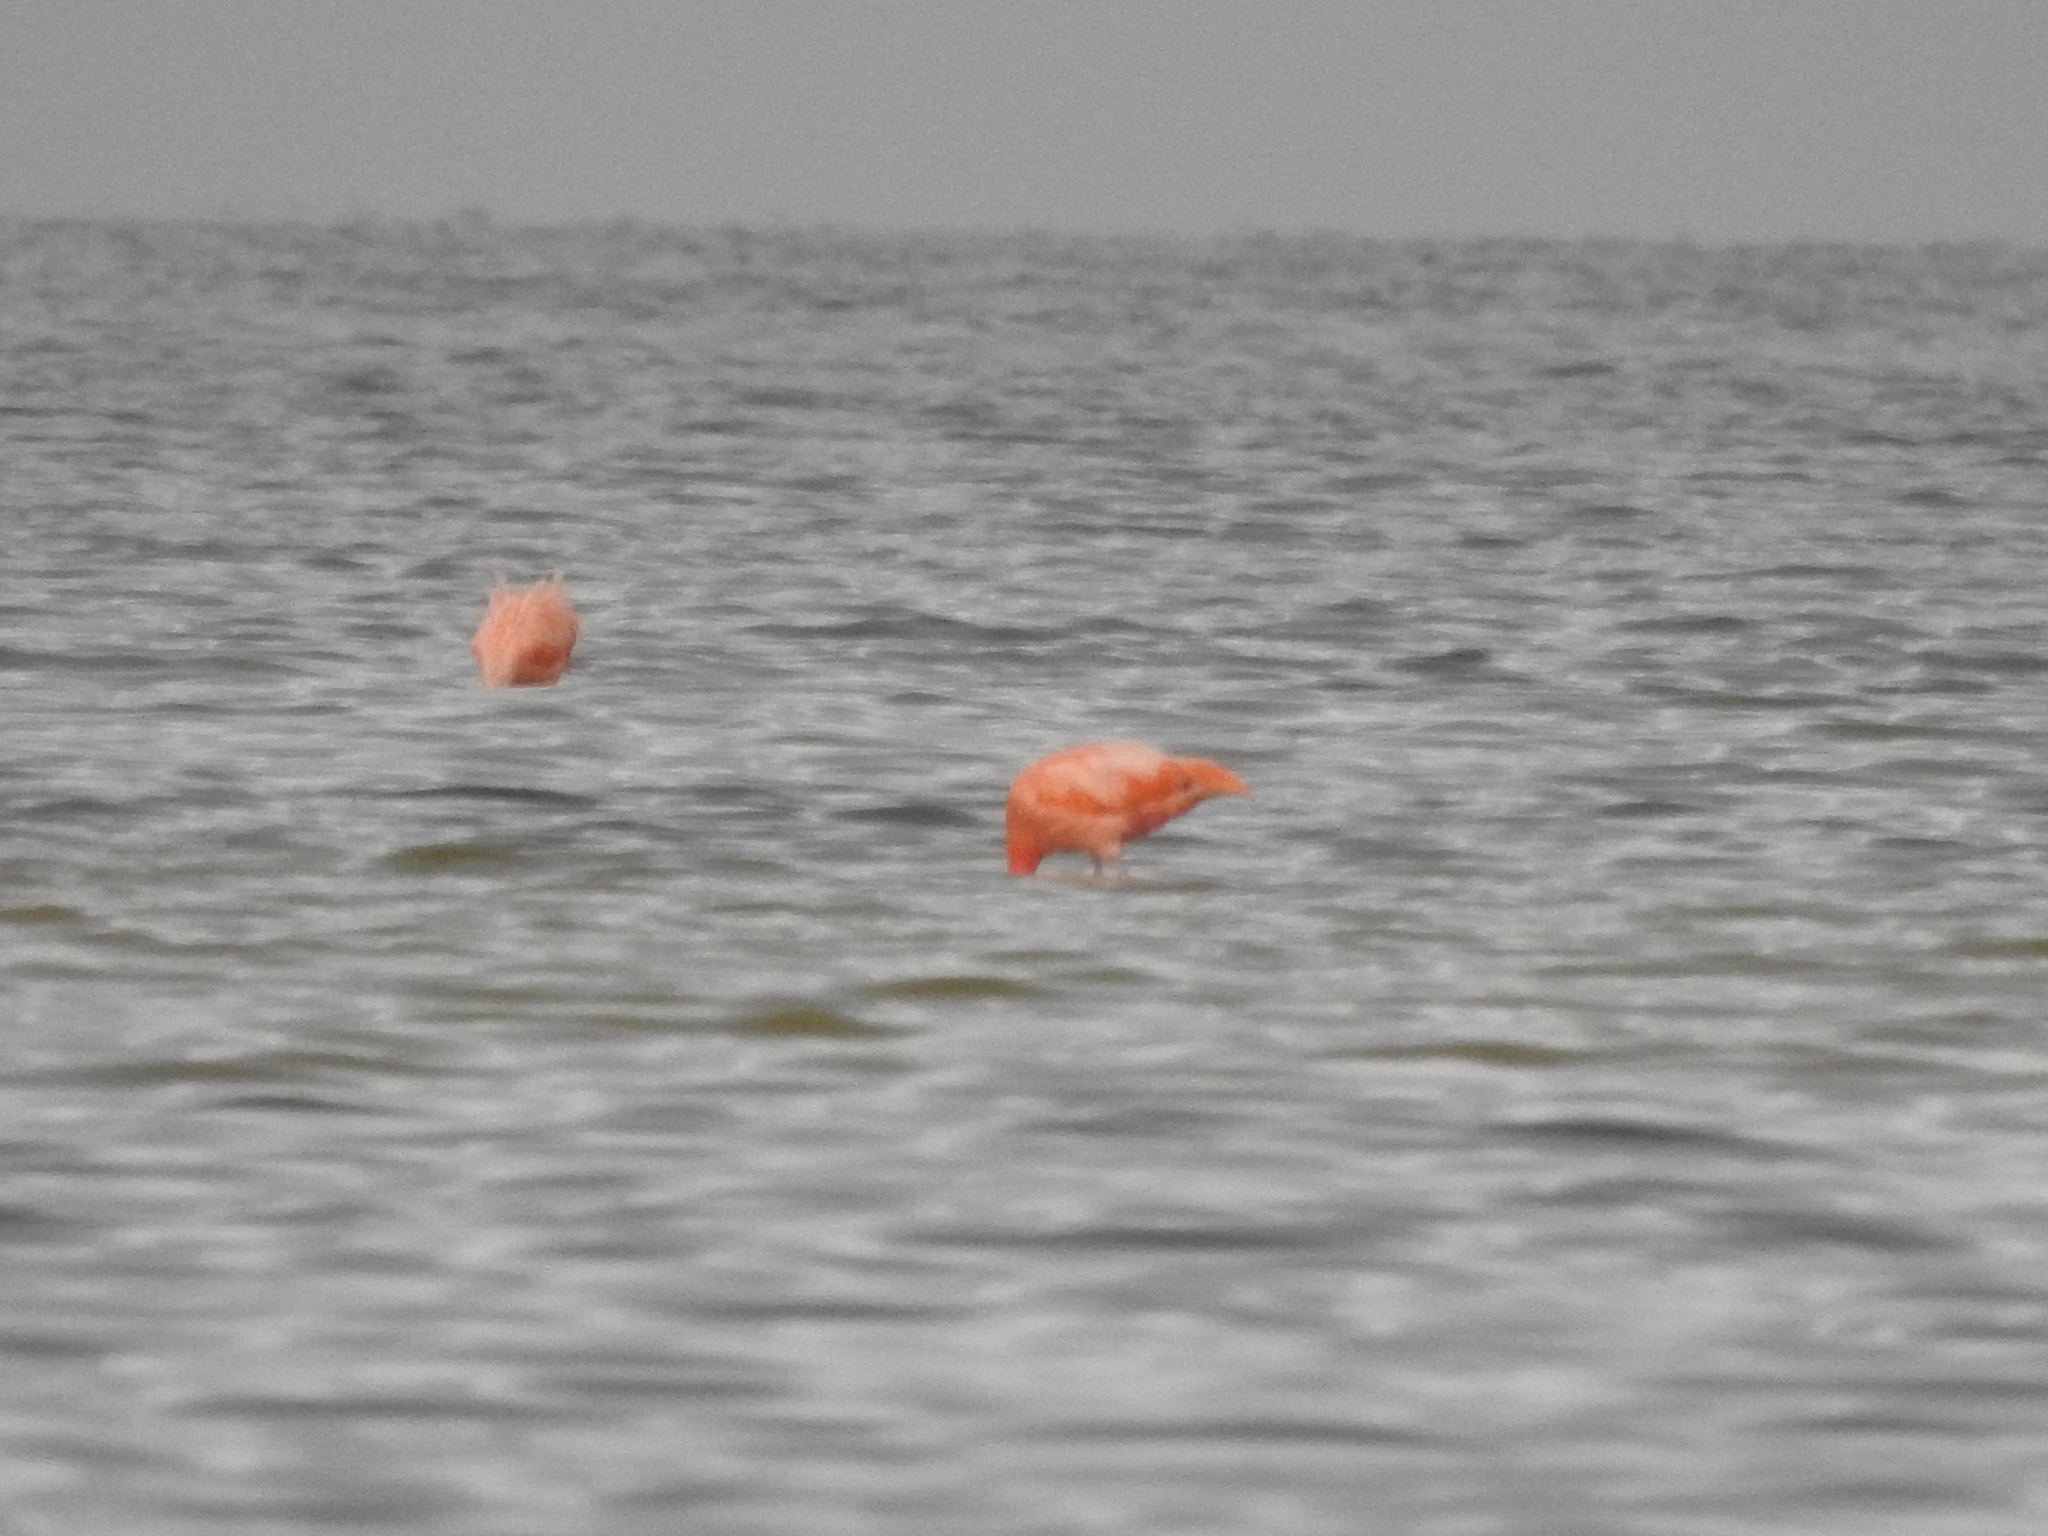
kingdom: Animalia
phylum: Chordata
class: Aves
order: Phoenicopteriformes
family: Phoenicopteridae
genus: Phoenicopterus
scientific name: Phoenicopterus ruber
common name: American flamingo
